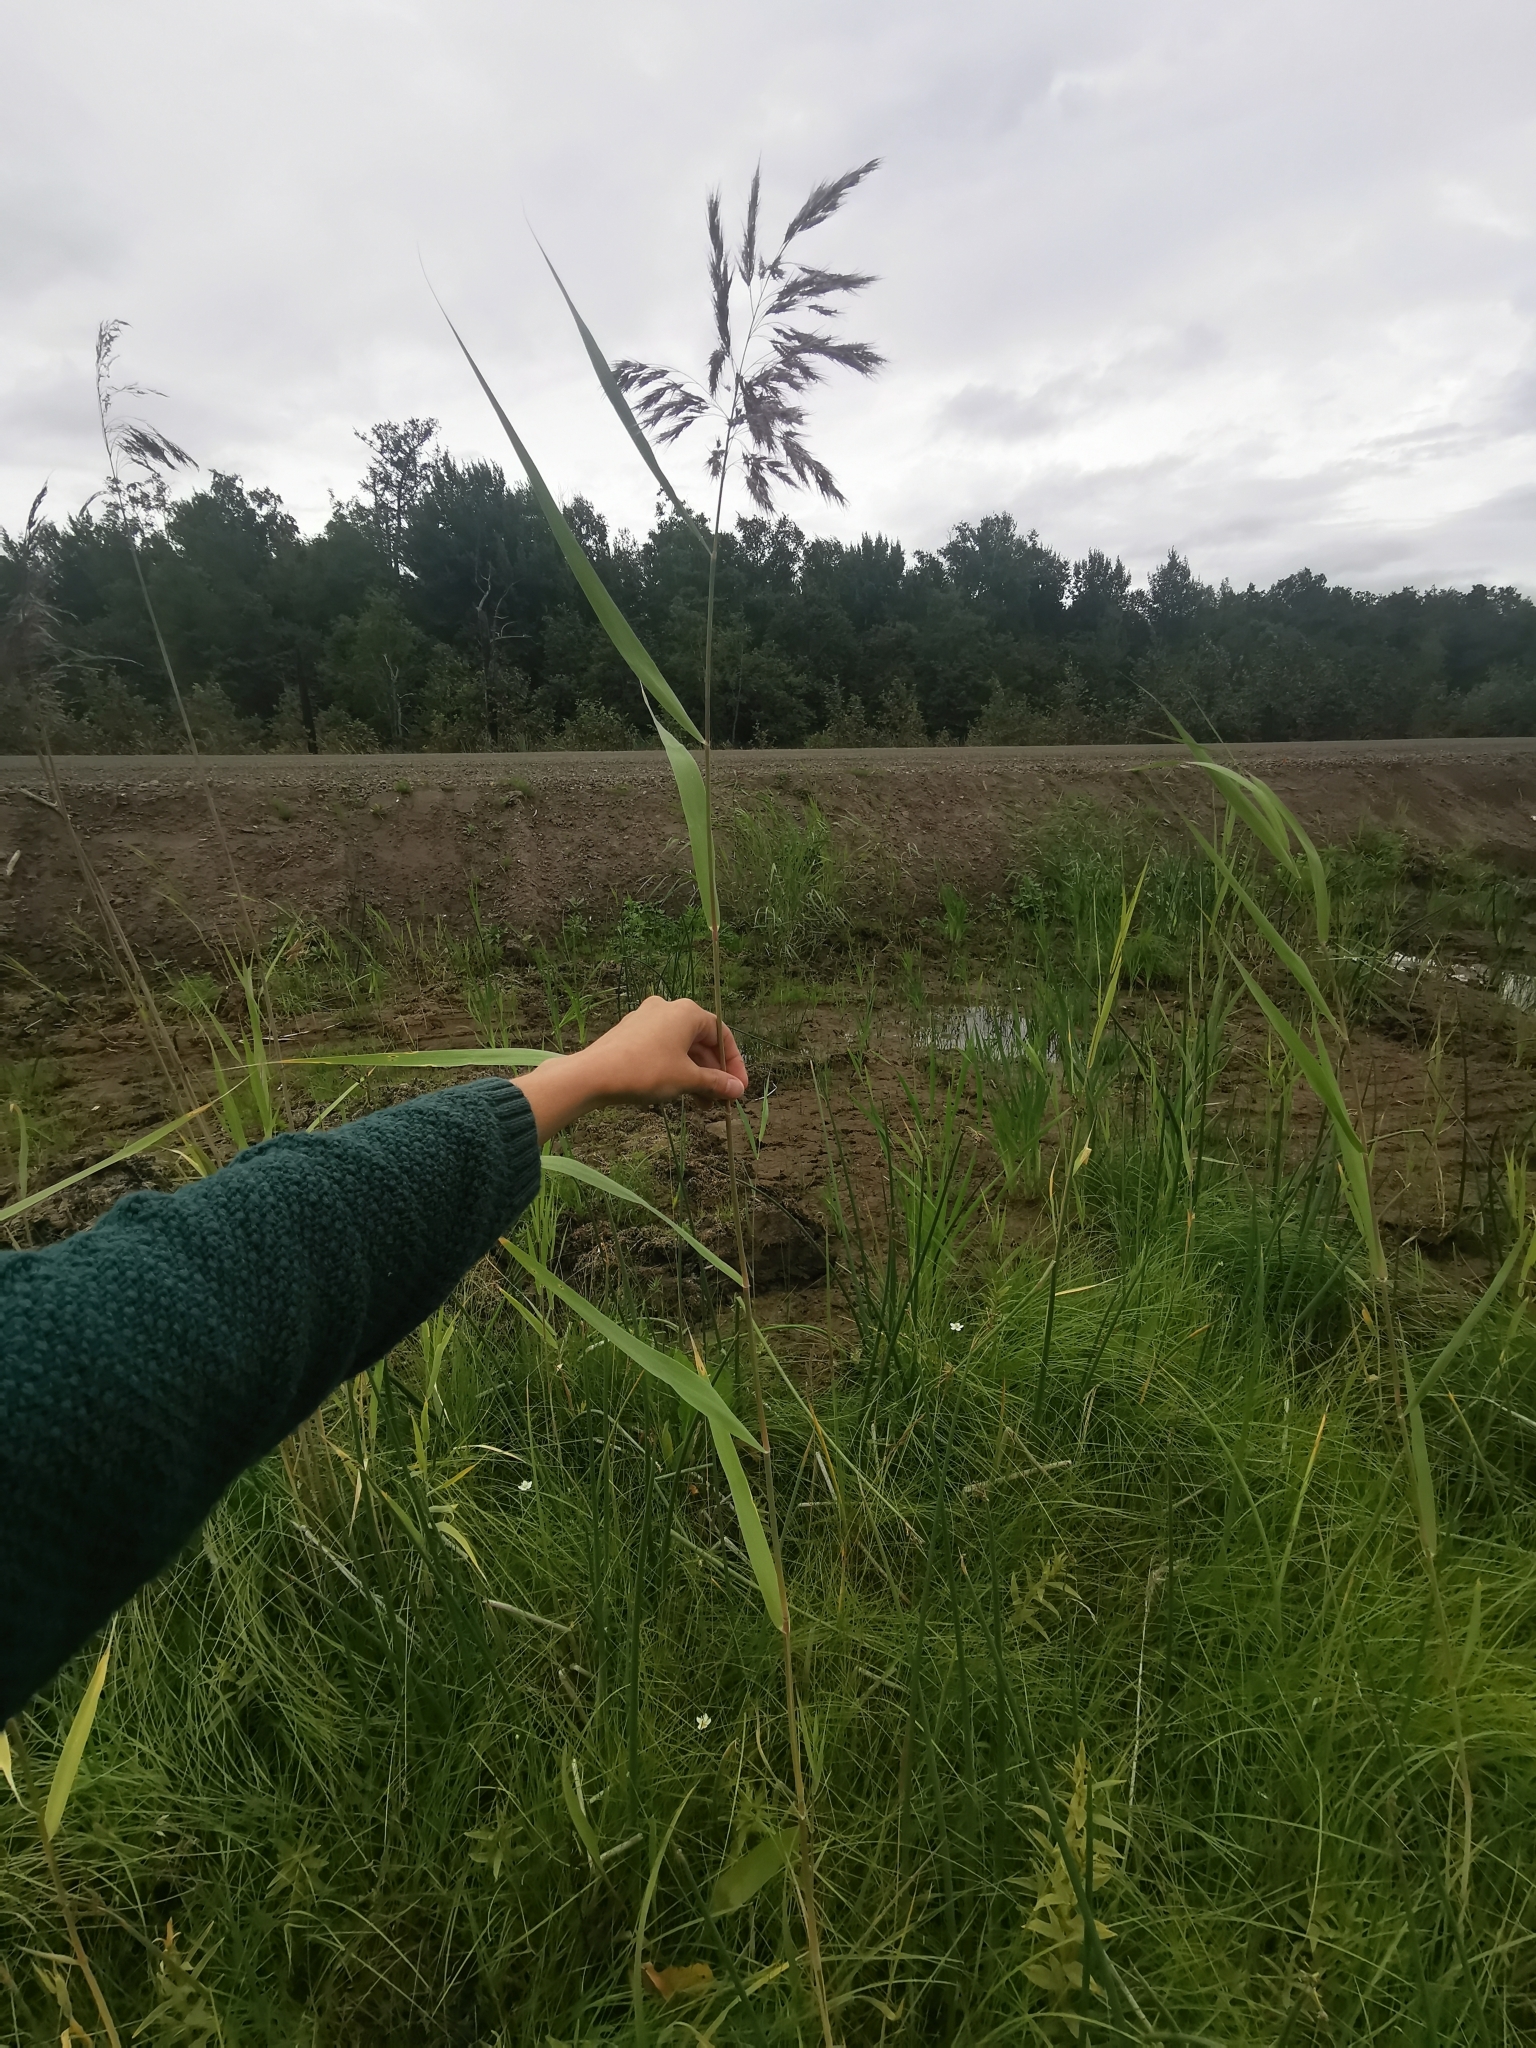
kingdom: Plantae
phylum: Tracheophyta
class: Liliopsida
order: Poales
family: Poaceae
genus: Phragmites
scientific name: Phragmites australis
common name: Common reed
